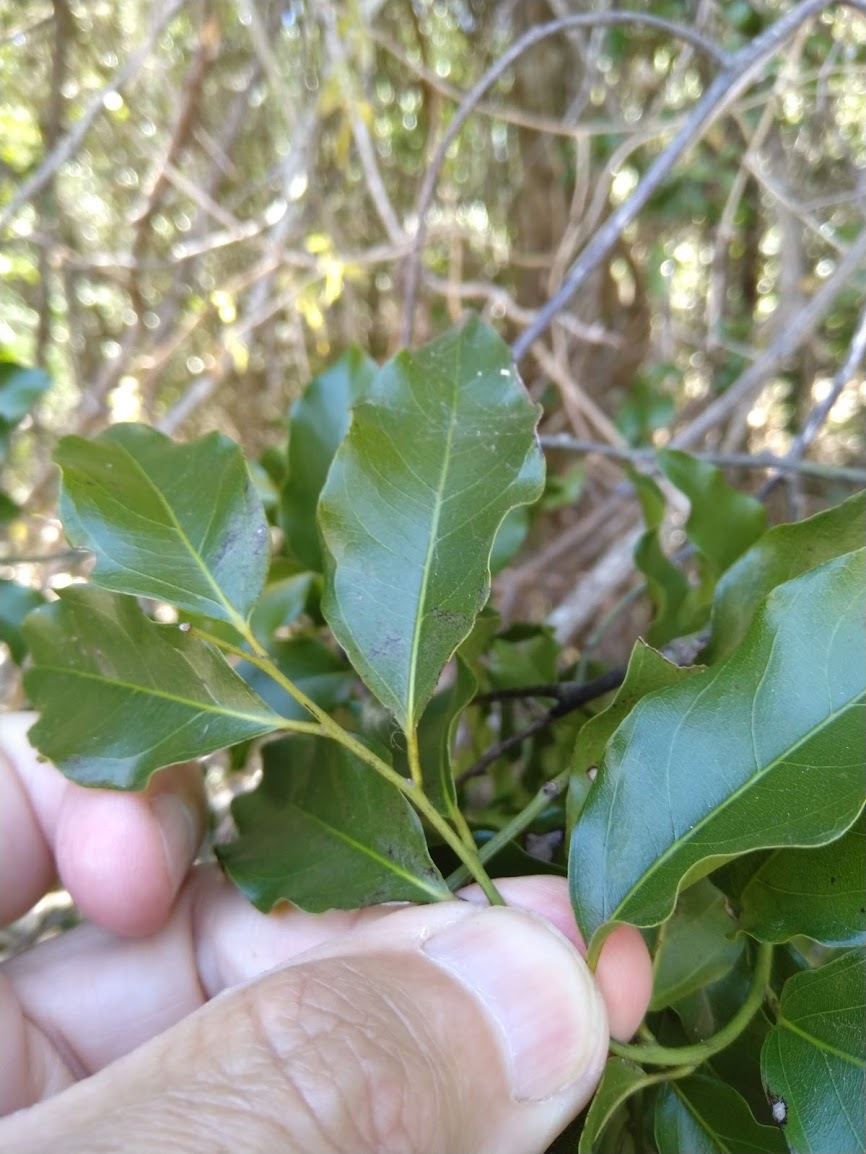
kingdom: Plantae
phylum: Tracheophyta
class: Magnoliopsida
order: Rosales
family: Rhamnaceae
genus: Ventilago
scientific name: Ventilago pubiflora
